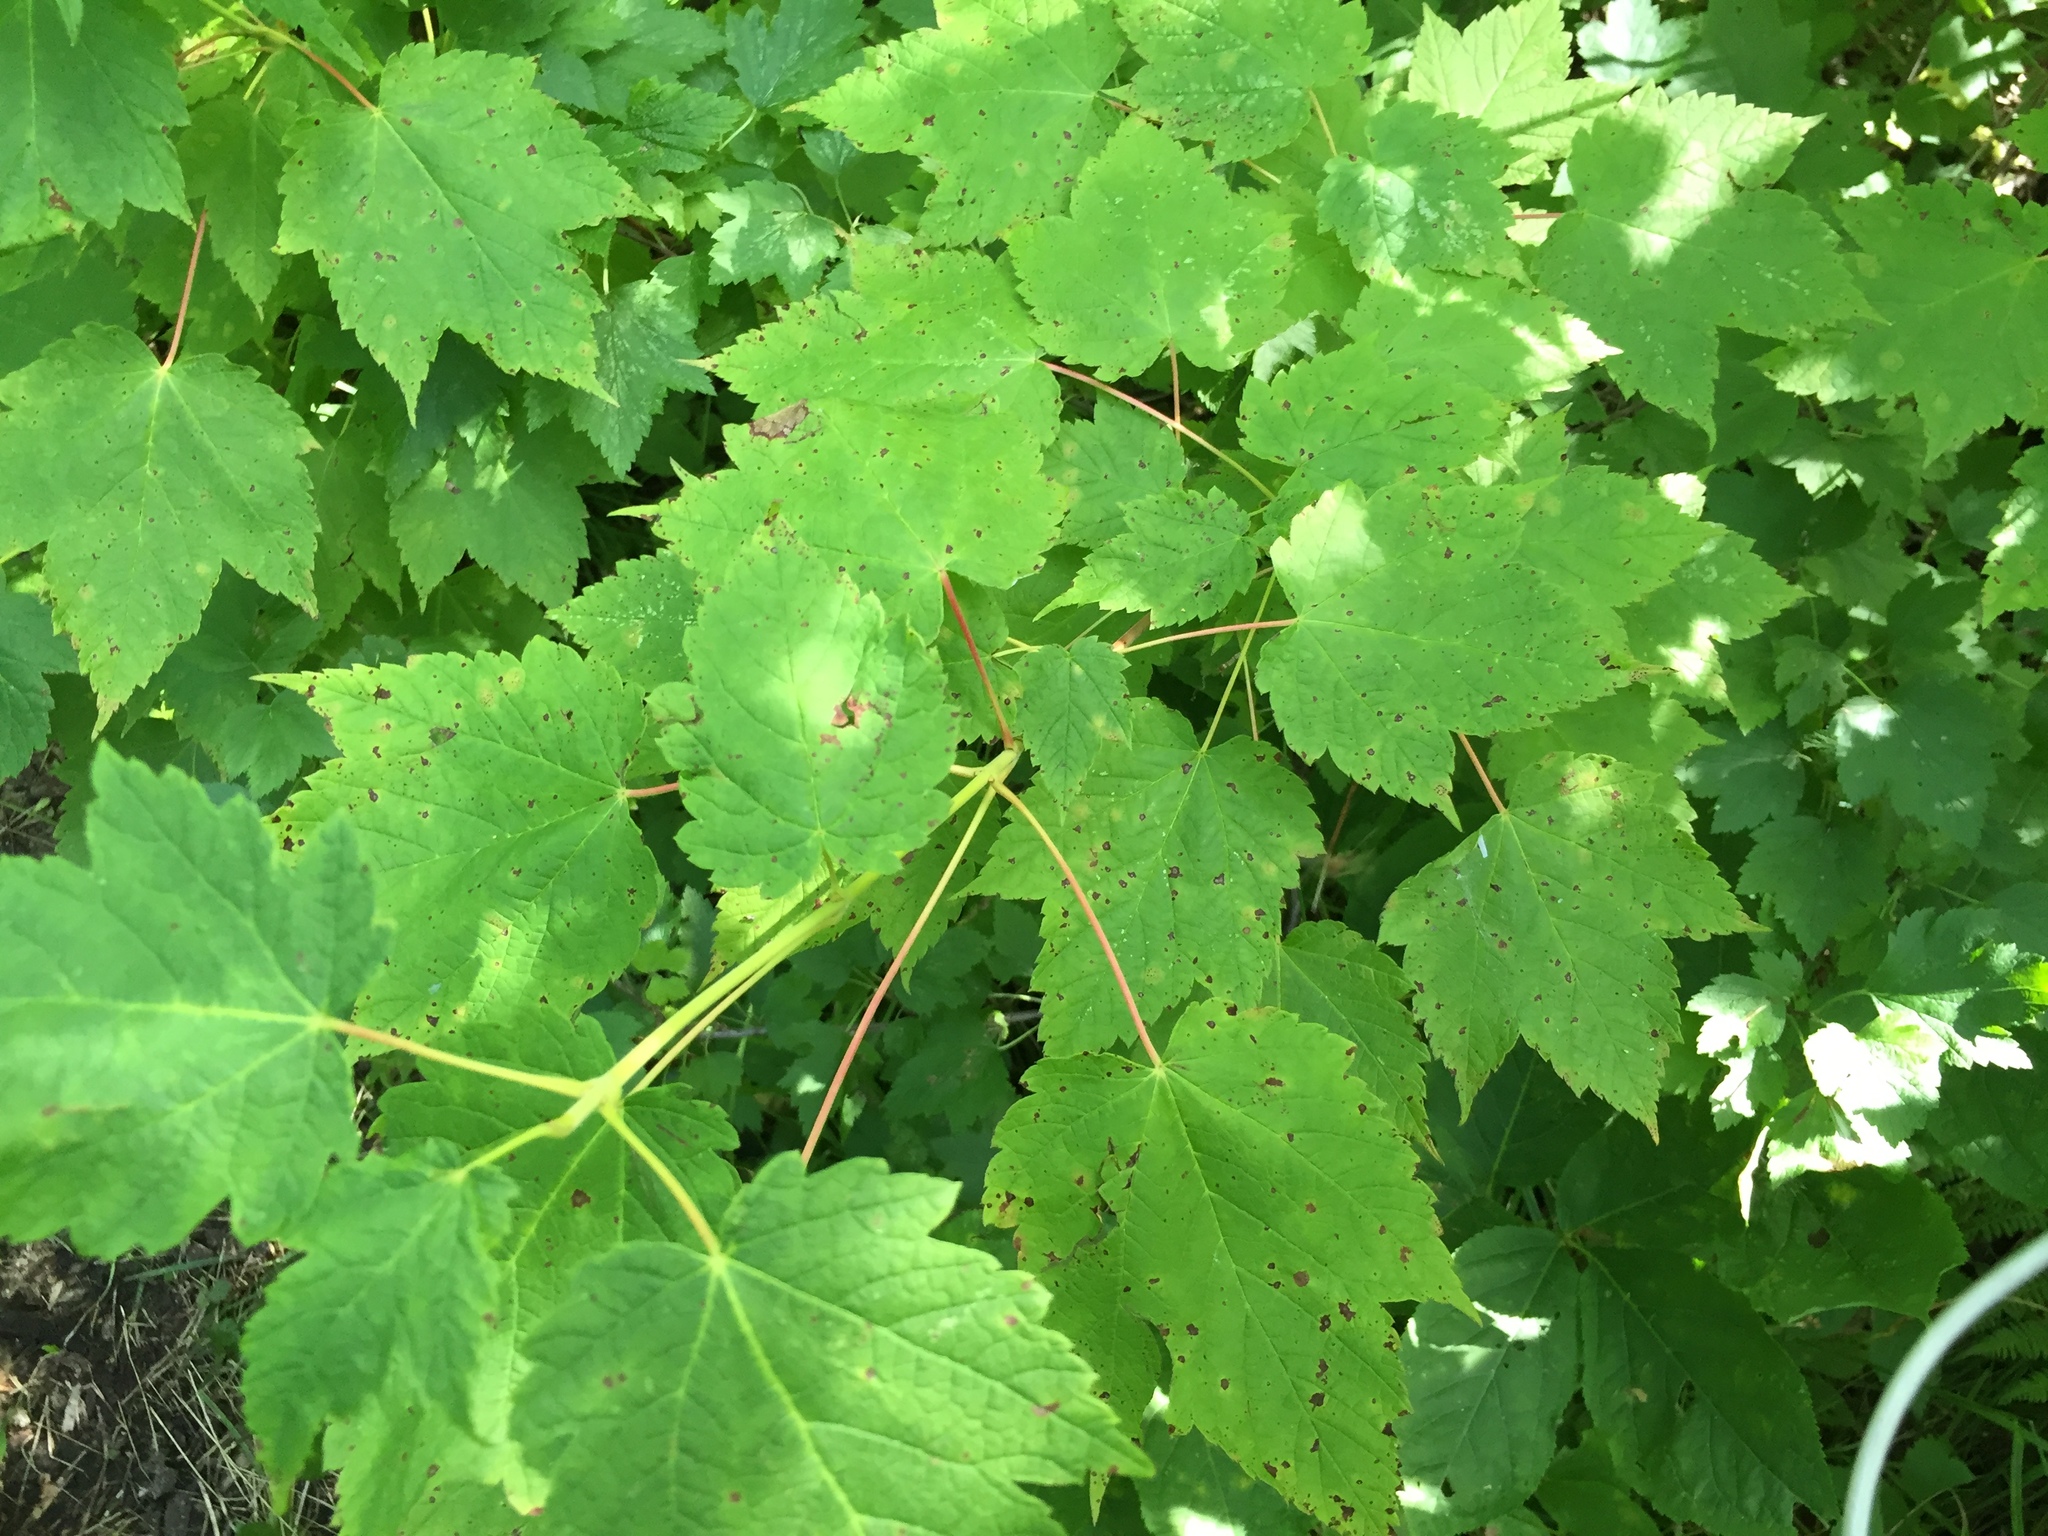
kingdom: Plantae
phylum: Tracheophyta
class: Magnoliopsida
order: Sapindales
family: Sapindaceae
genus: Acer
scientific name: Acer spicatum
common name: Mountain maple
